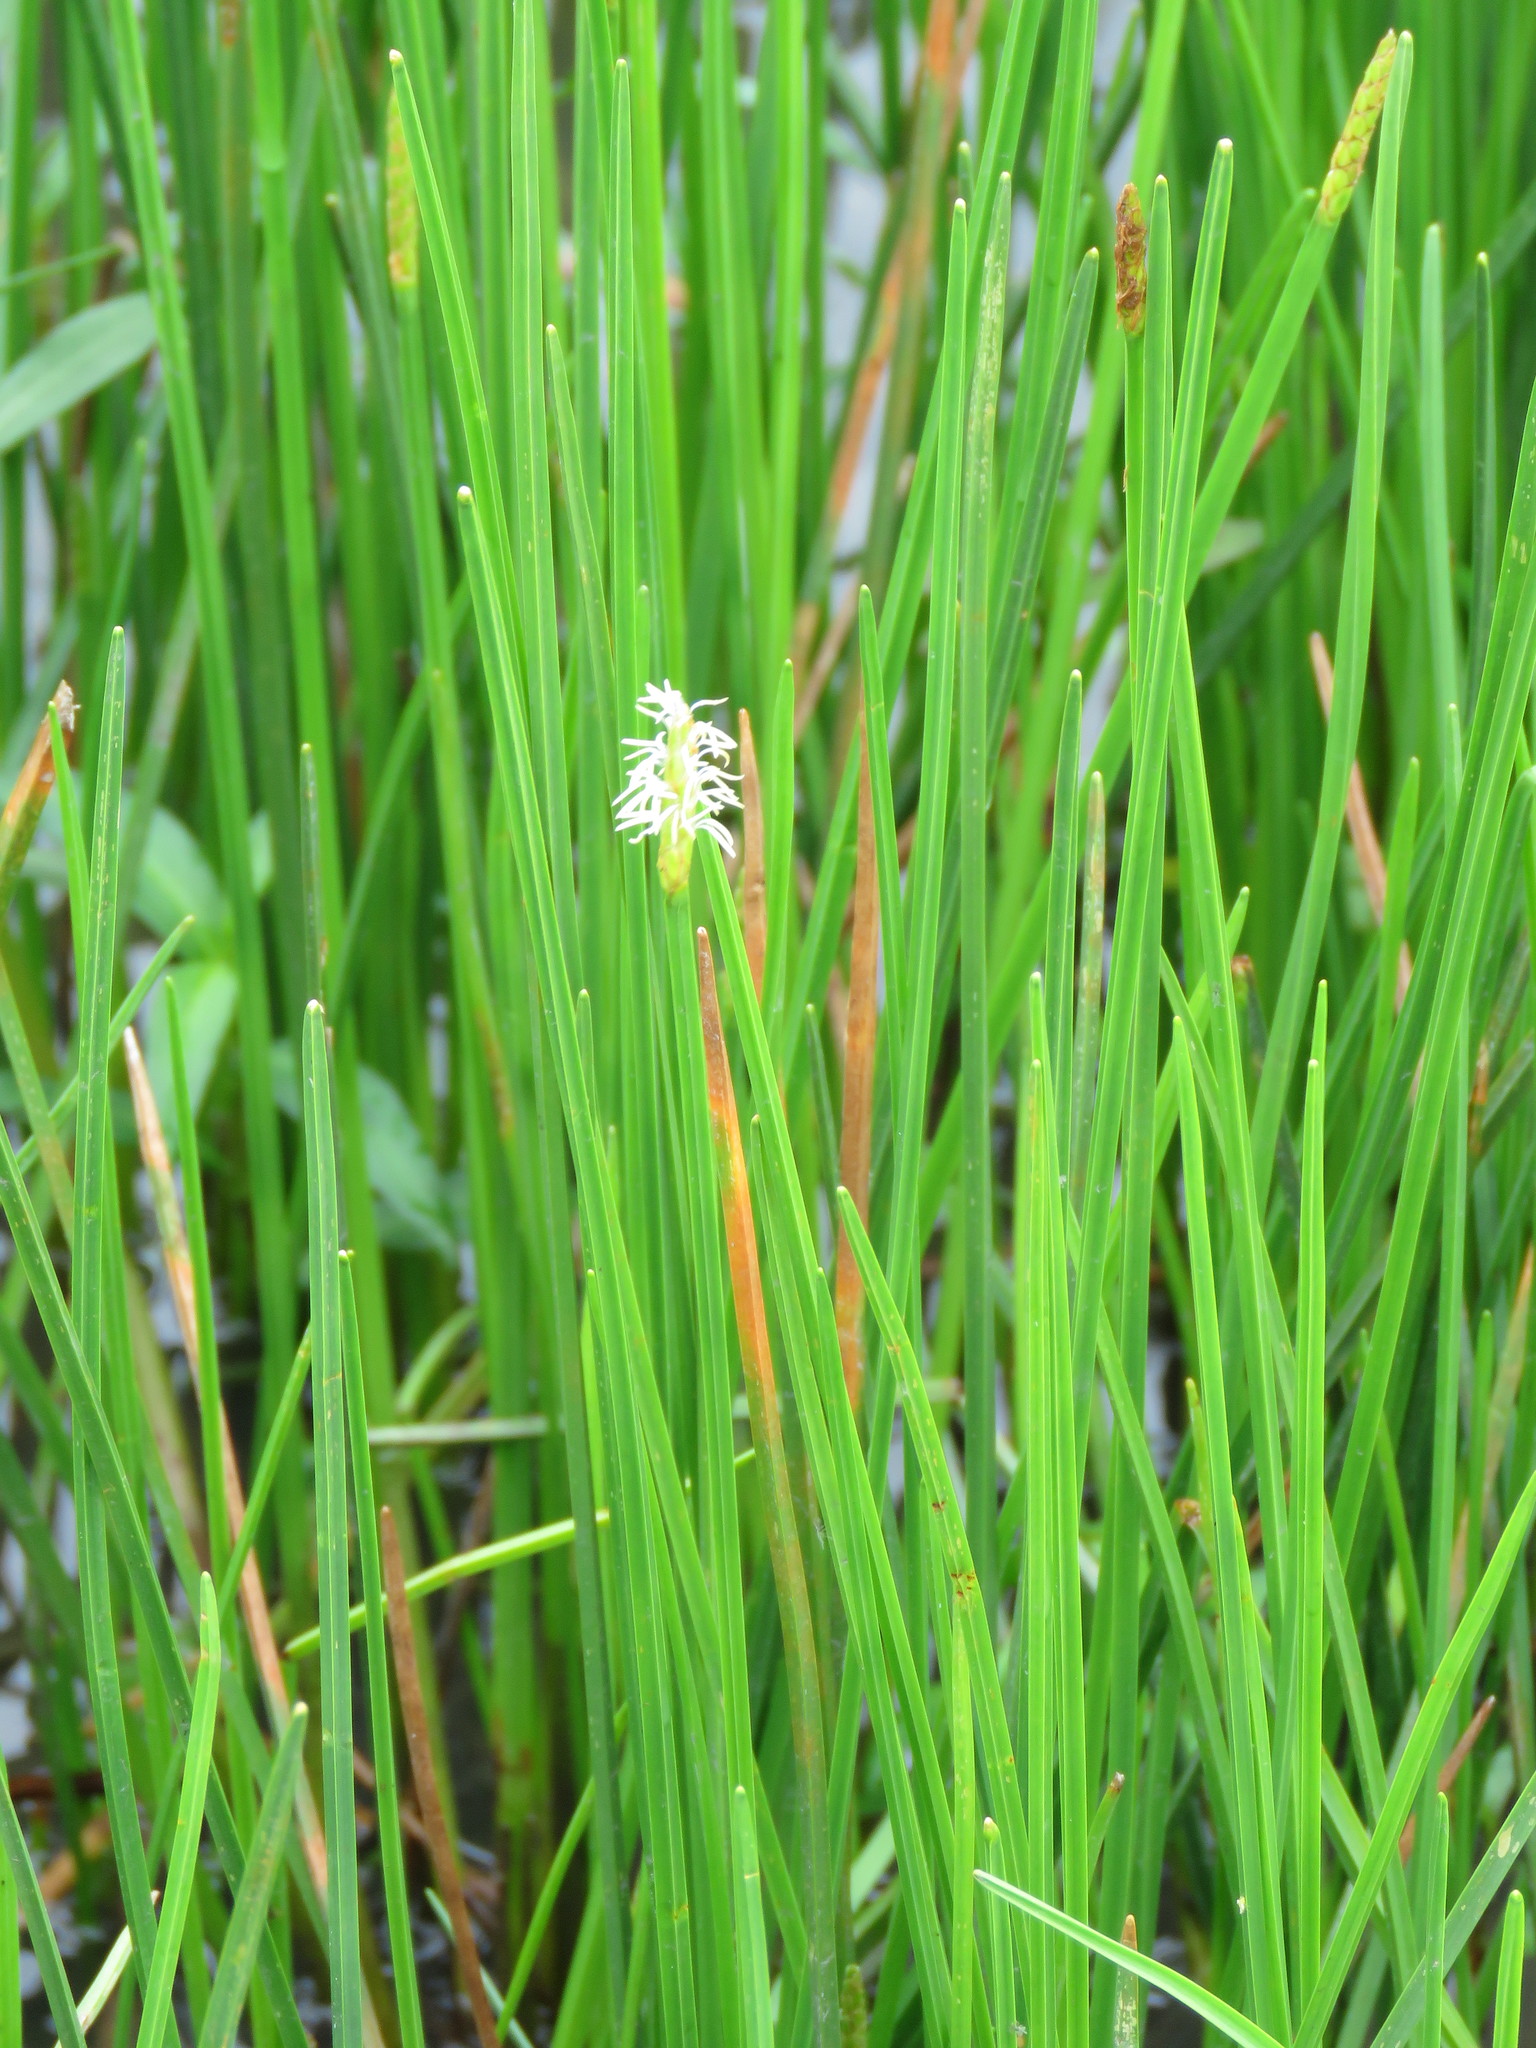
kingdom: Plantae
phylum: Tracheophyta
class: Liliopsida
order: Poales
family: Cyperaceae
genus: Eleocharis
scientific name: Eleocharis quadrangulata
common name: Square-stem spike-rush
